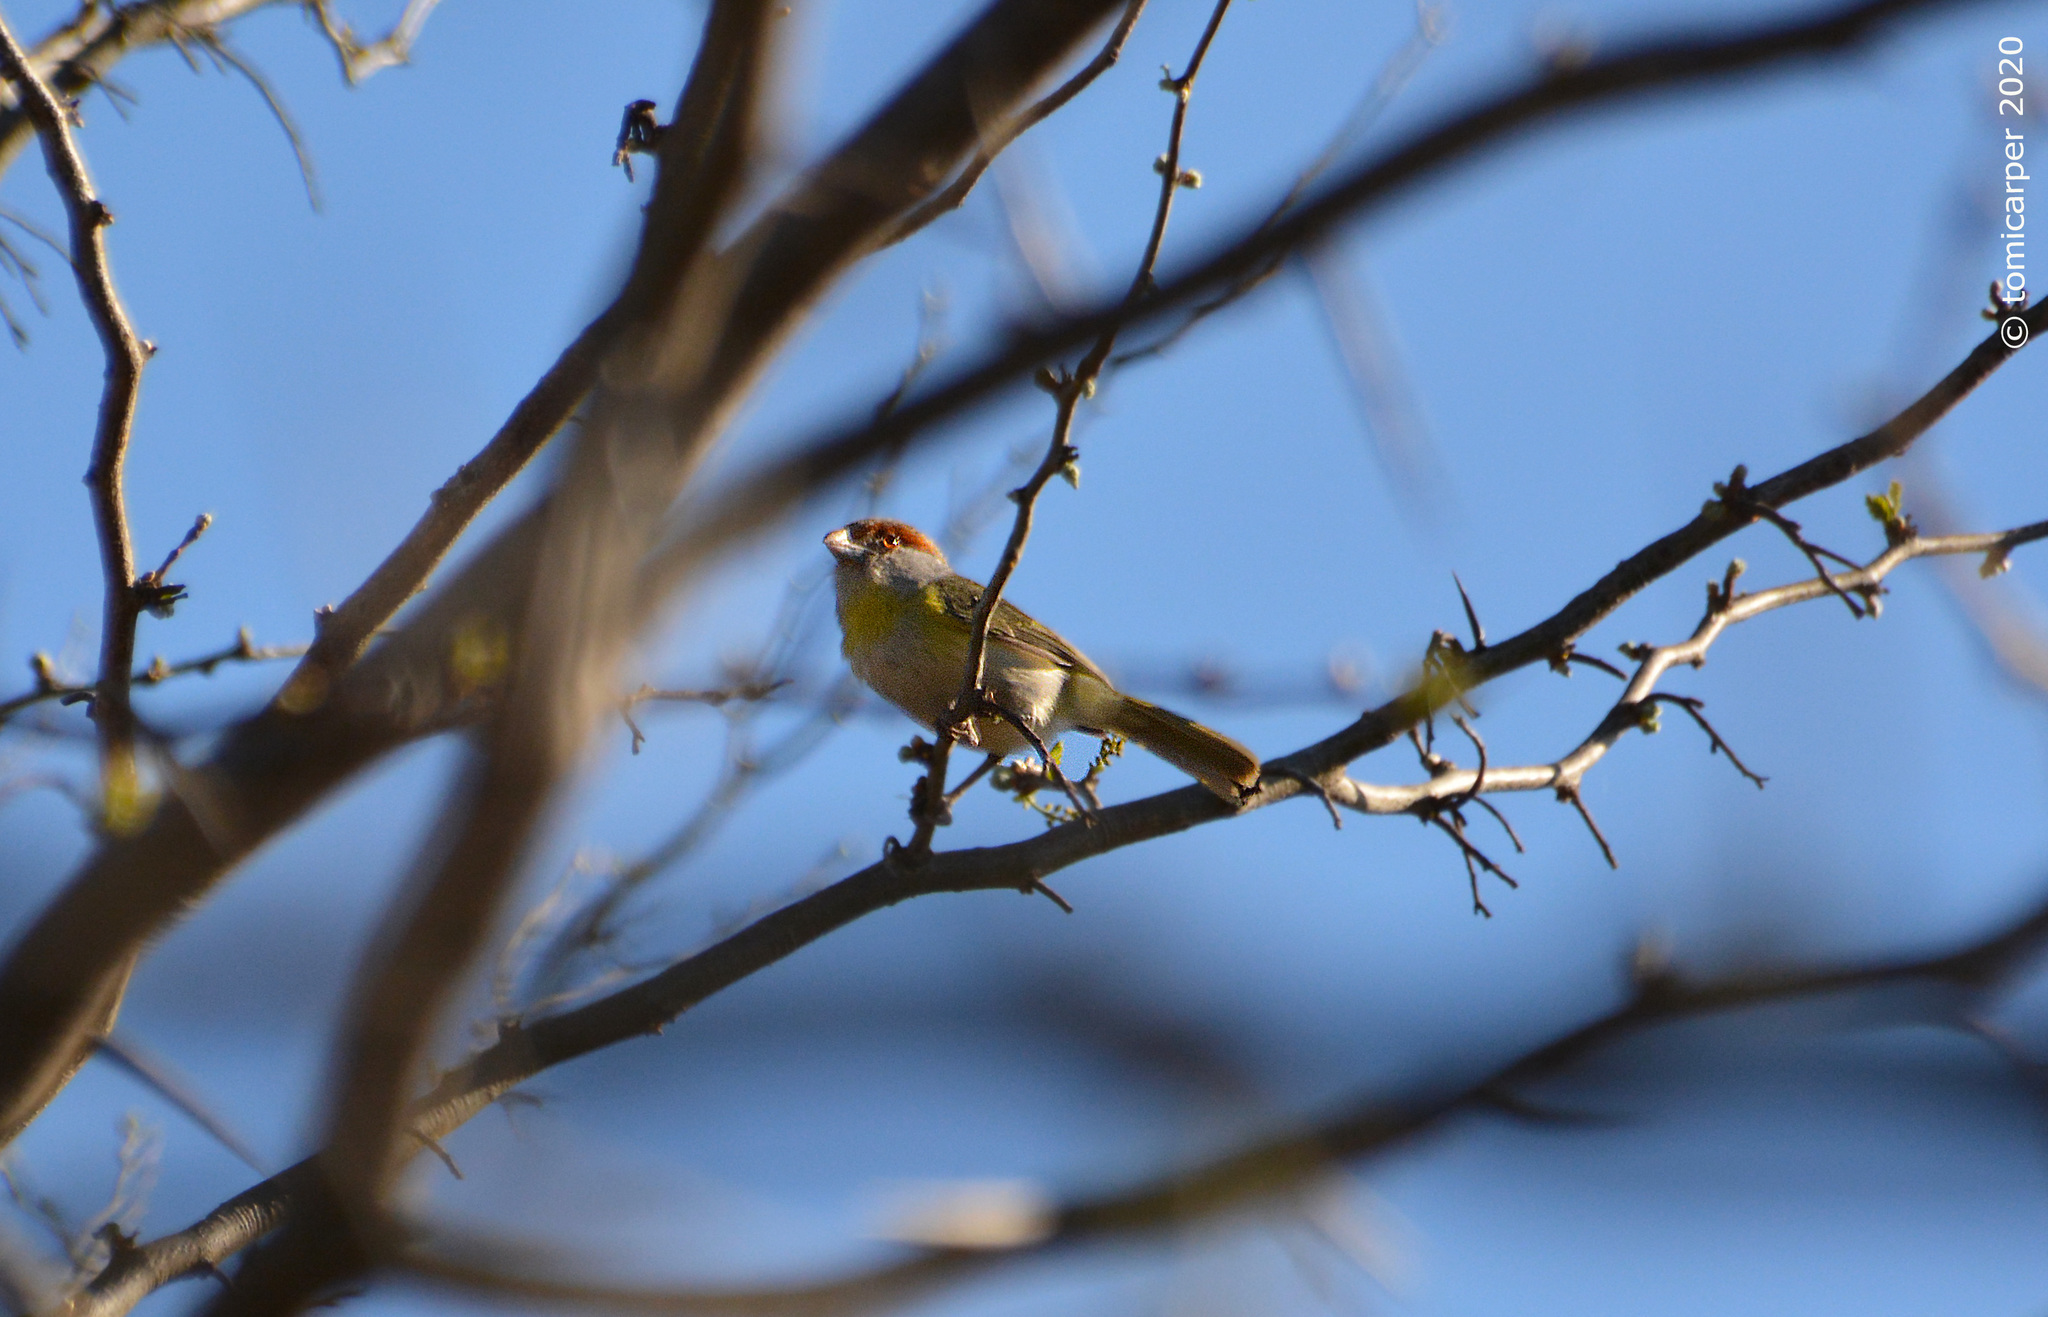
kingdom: Animalia
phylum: Chordata
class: Aves
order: Passeriformes
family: Vireonidae
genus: Cyclarhis
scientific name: Cyclarhis gujanensis
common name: Rufous-browed peppershrike
